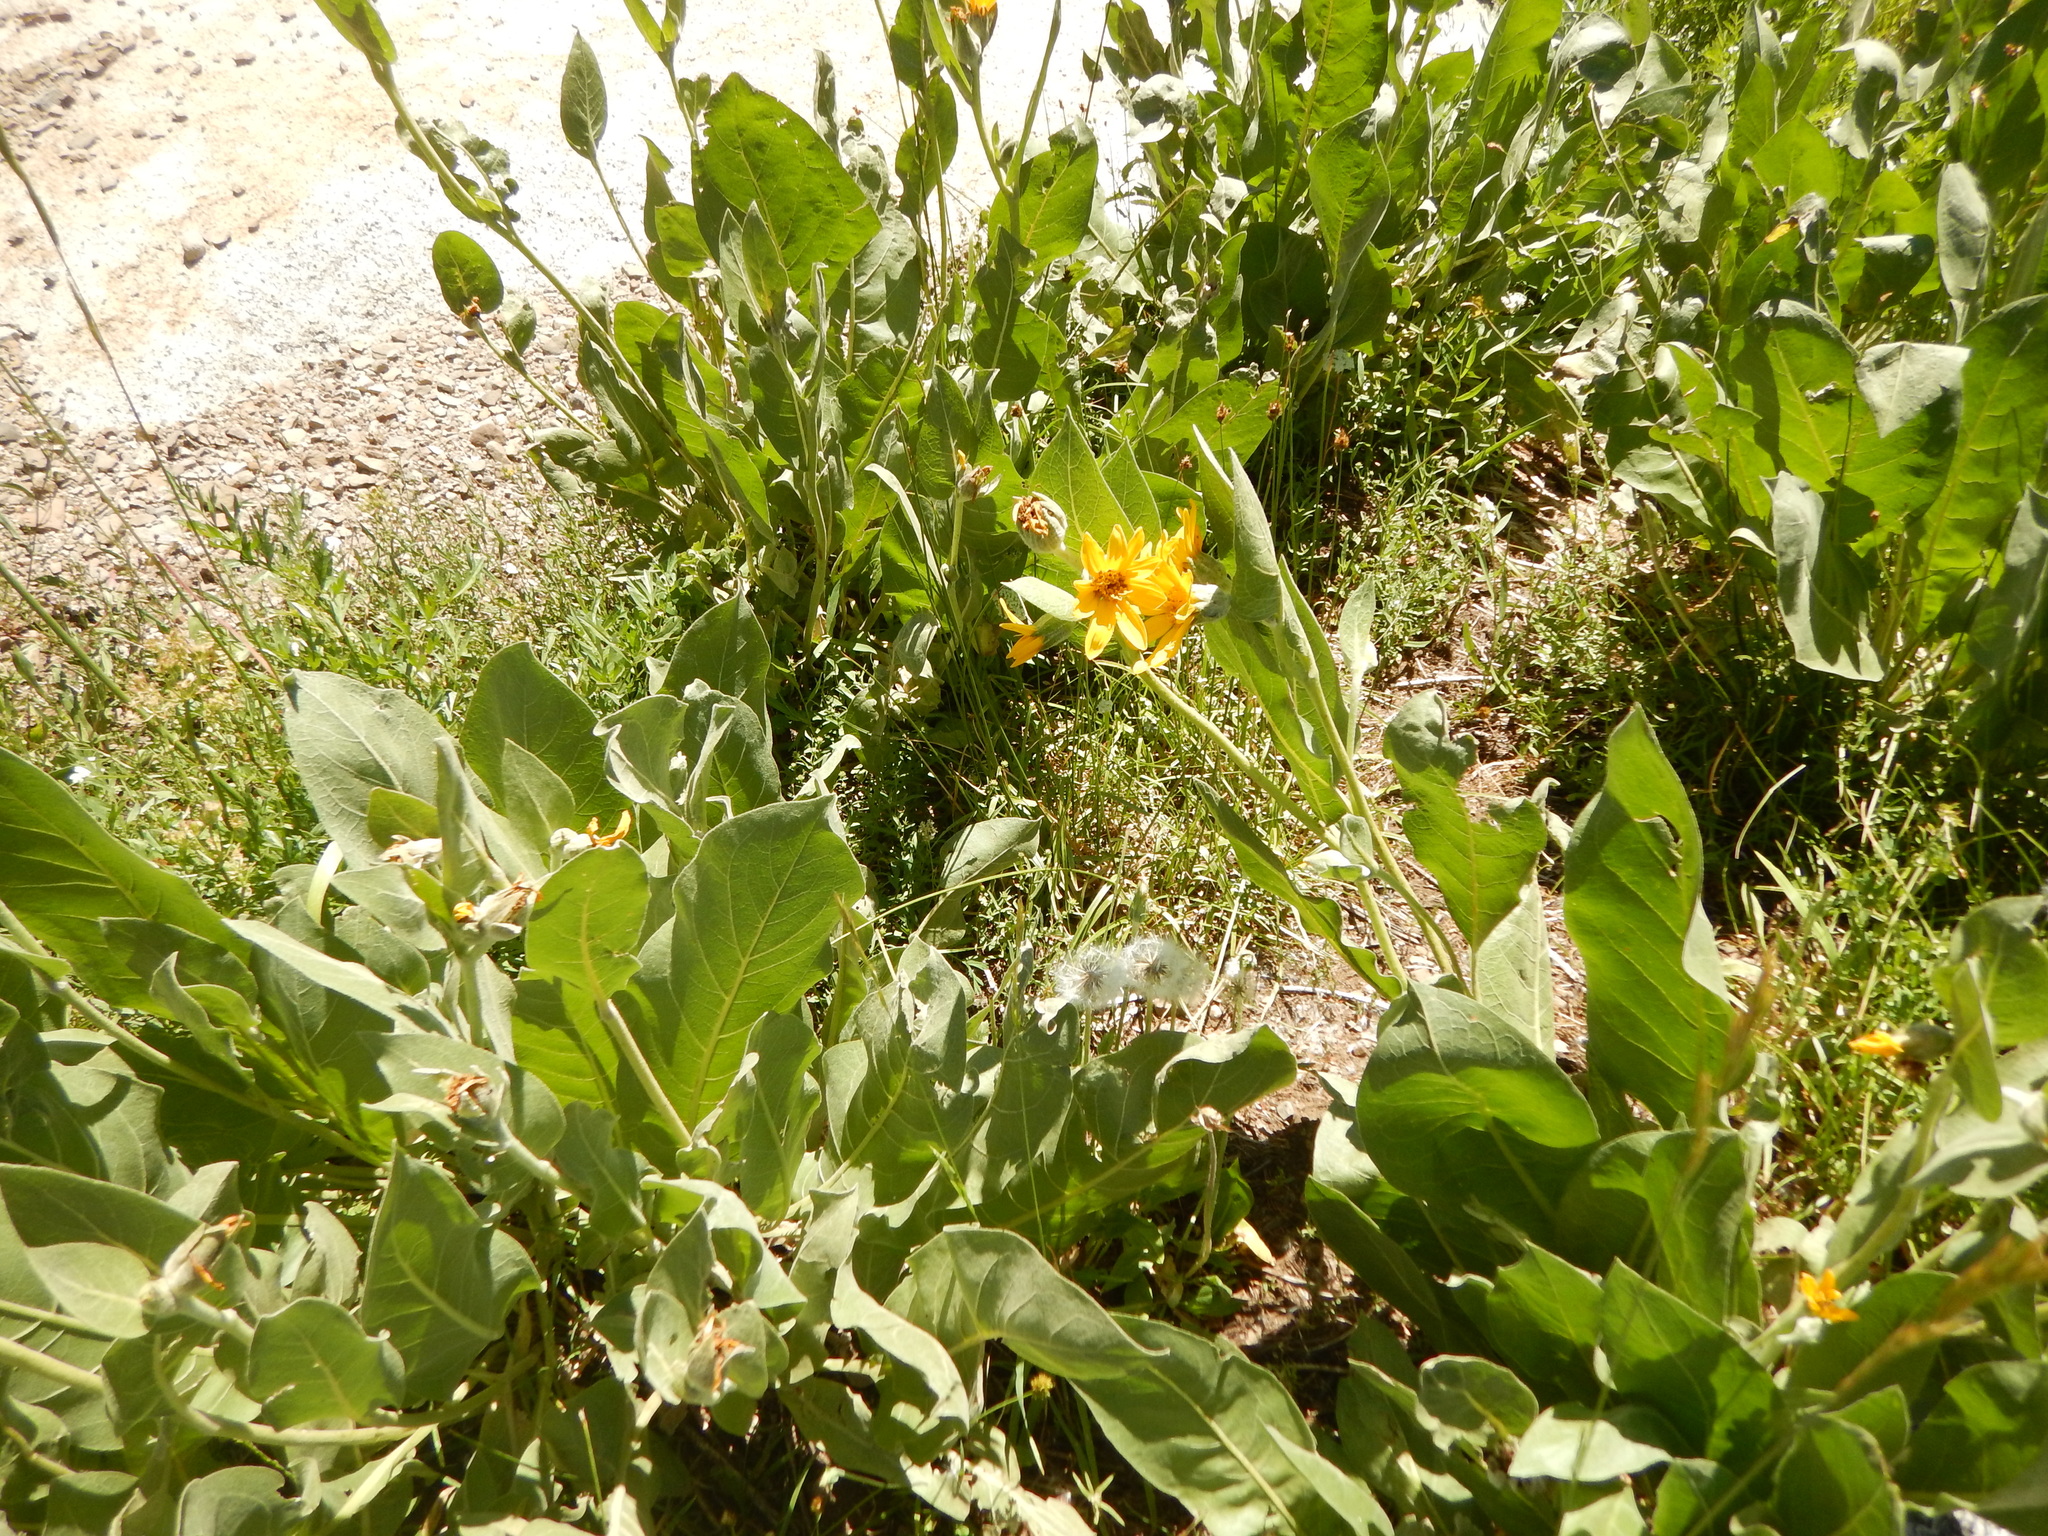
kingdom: Plantae
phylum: Tracheophyta
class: Magnoliopsida
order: Asterales
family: Asteraceae
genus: Wyethia
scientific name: Wyethia mollis
